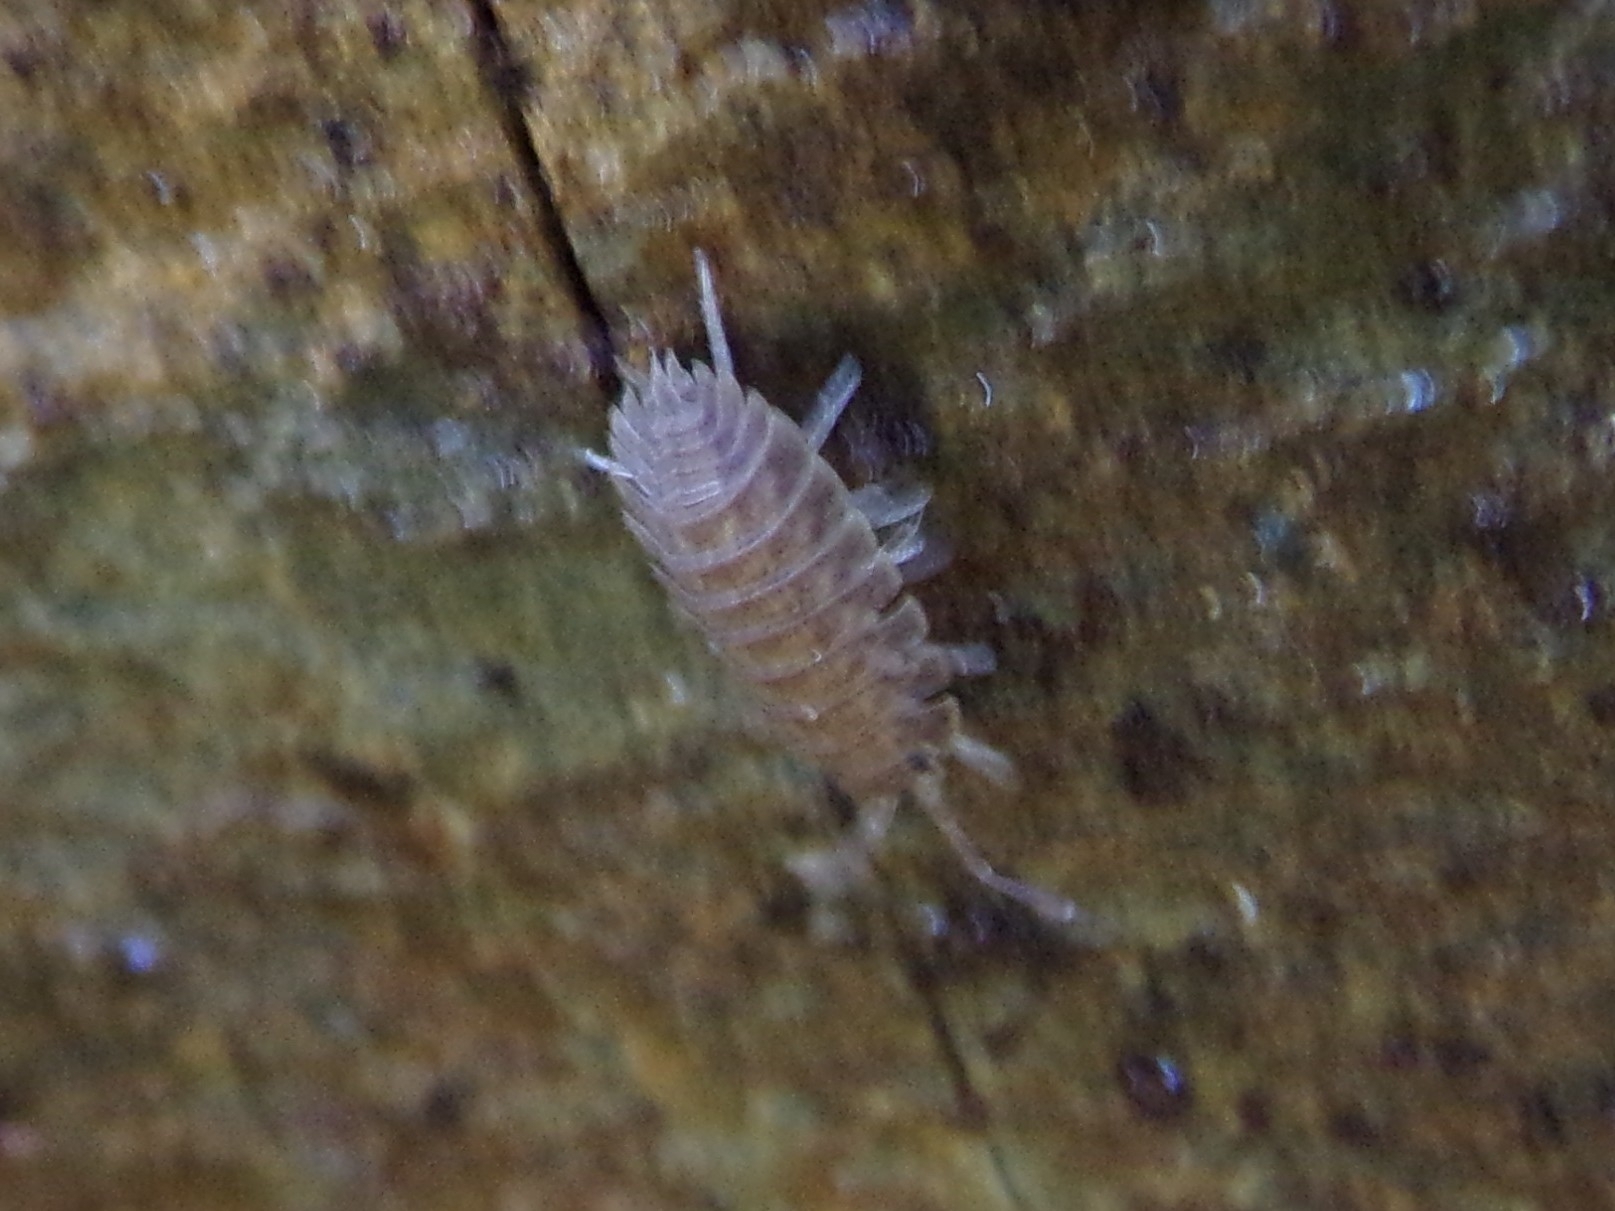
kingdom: Animalia
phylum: Arthropoda
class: Malacostraca
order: Isopoda
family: Oniscidae
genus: Oniscus
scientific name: Oniscus simoni
